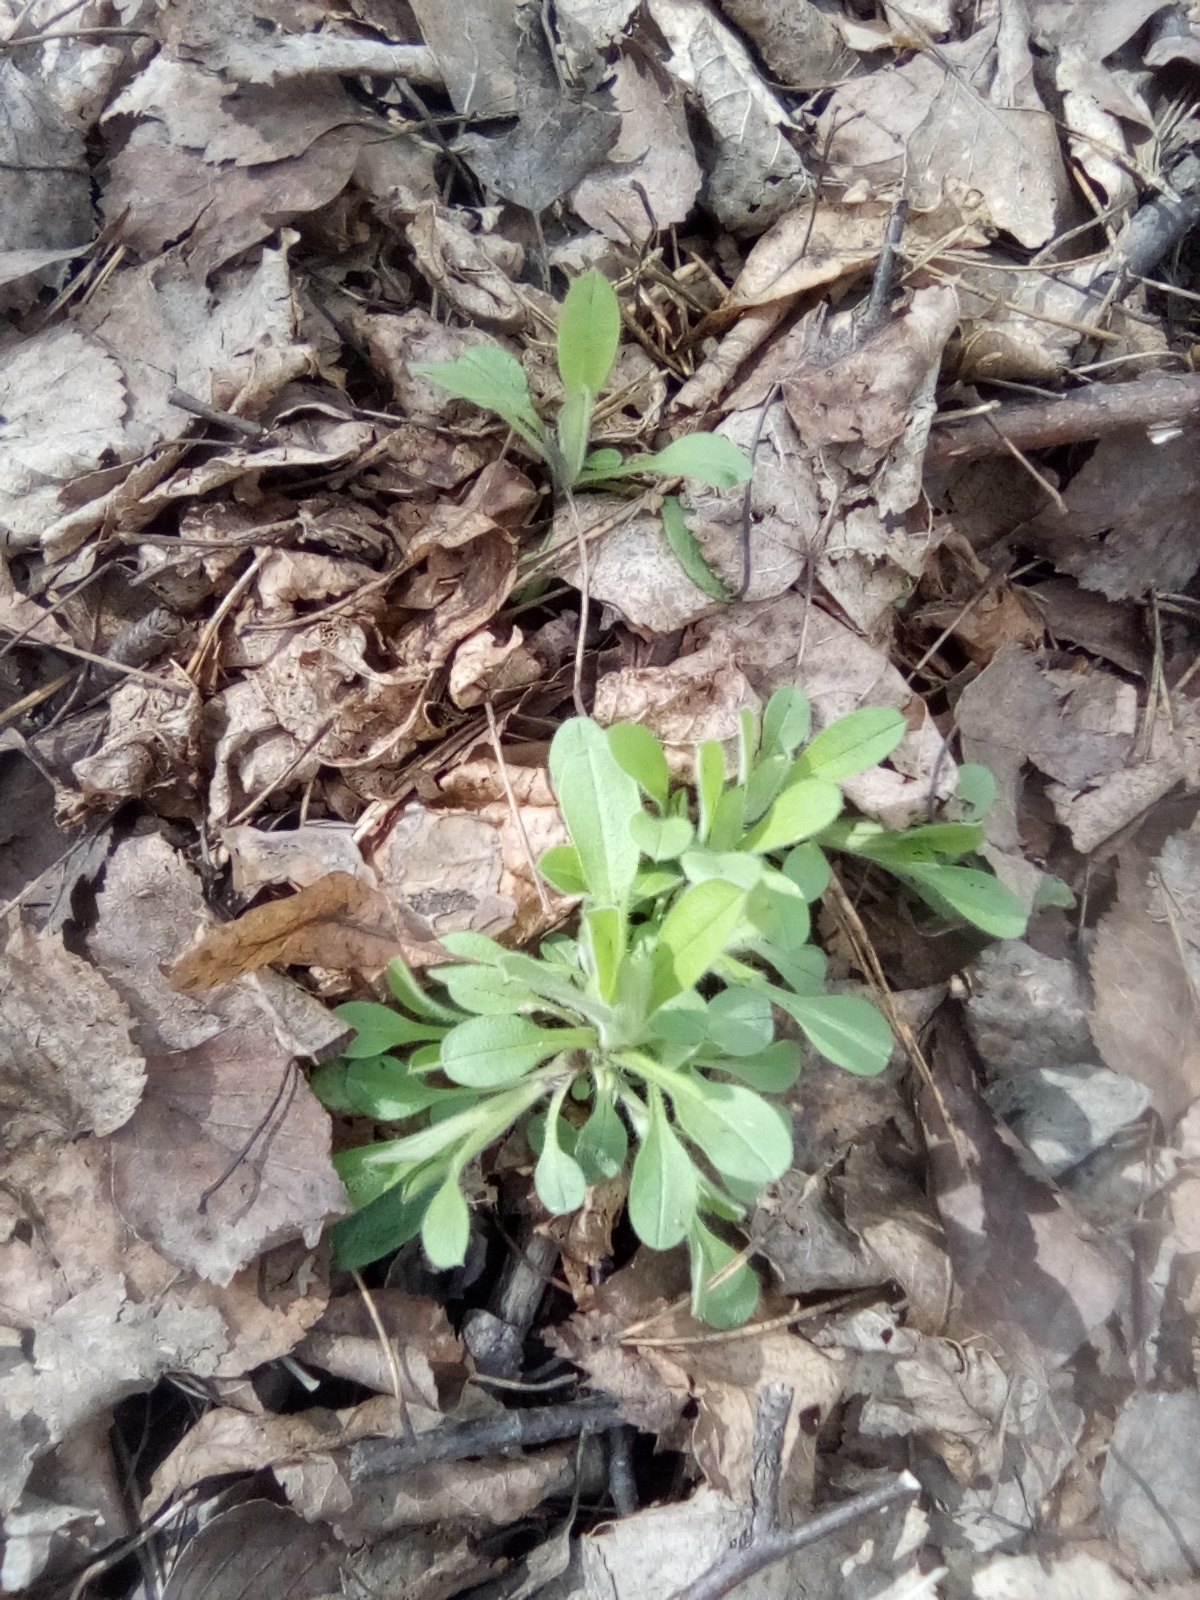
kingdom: Plantae
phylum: Tracheophyta
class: Magnoliopsida
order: Boraginales
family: Boraginaceae
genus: Myosotis
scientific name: Myosotis sparsiflora
